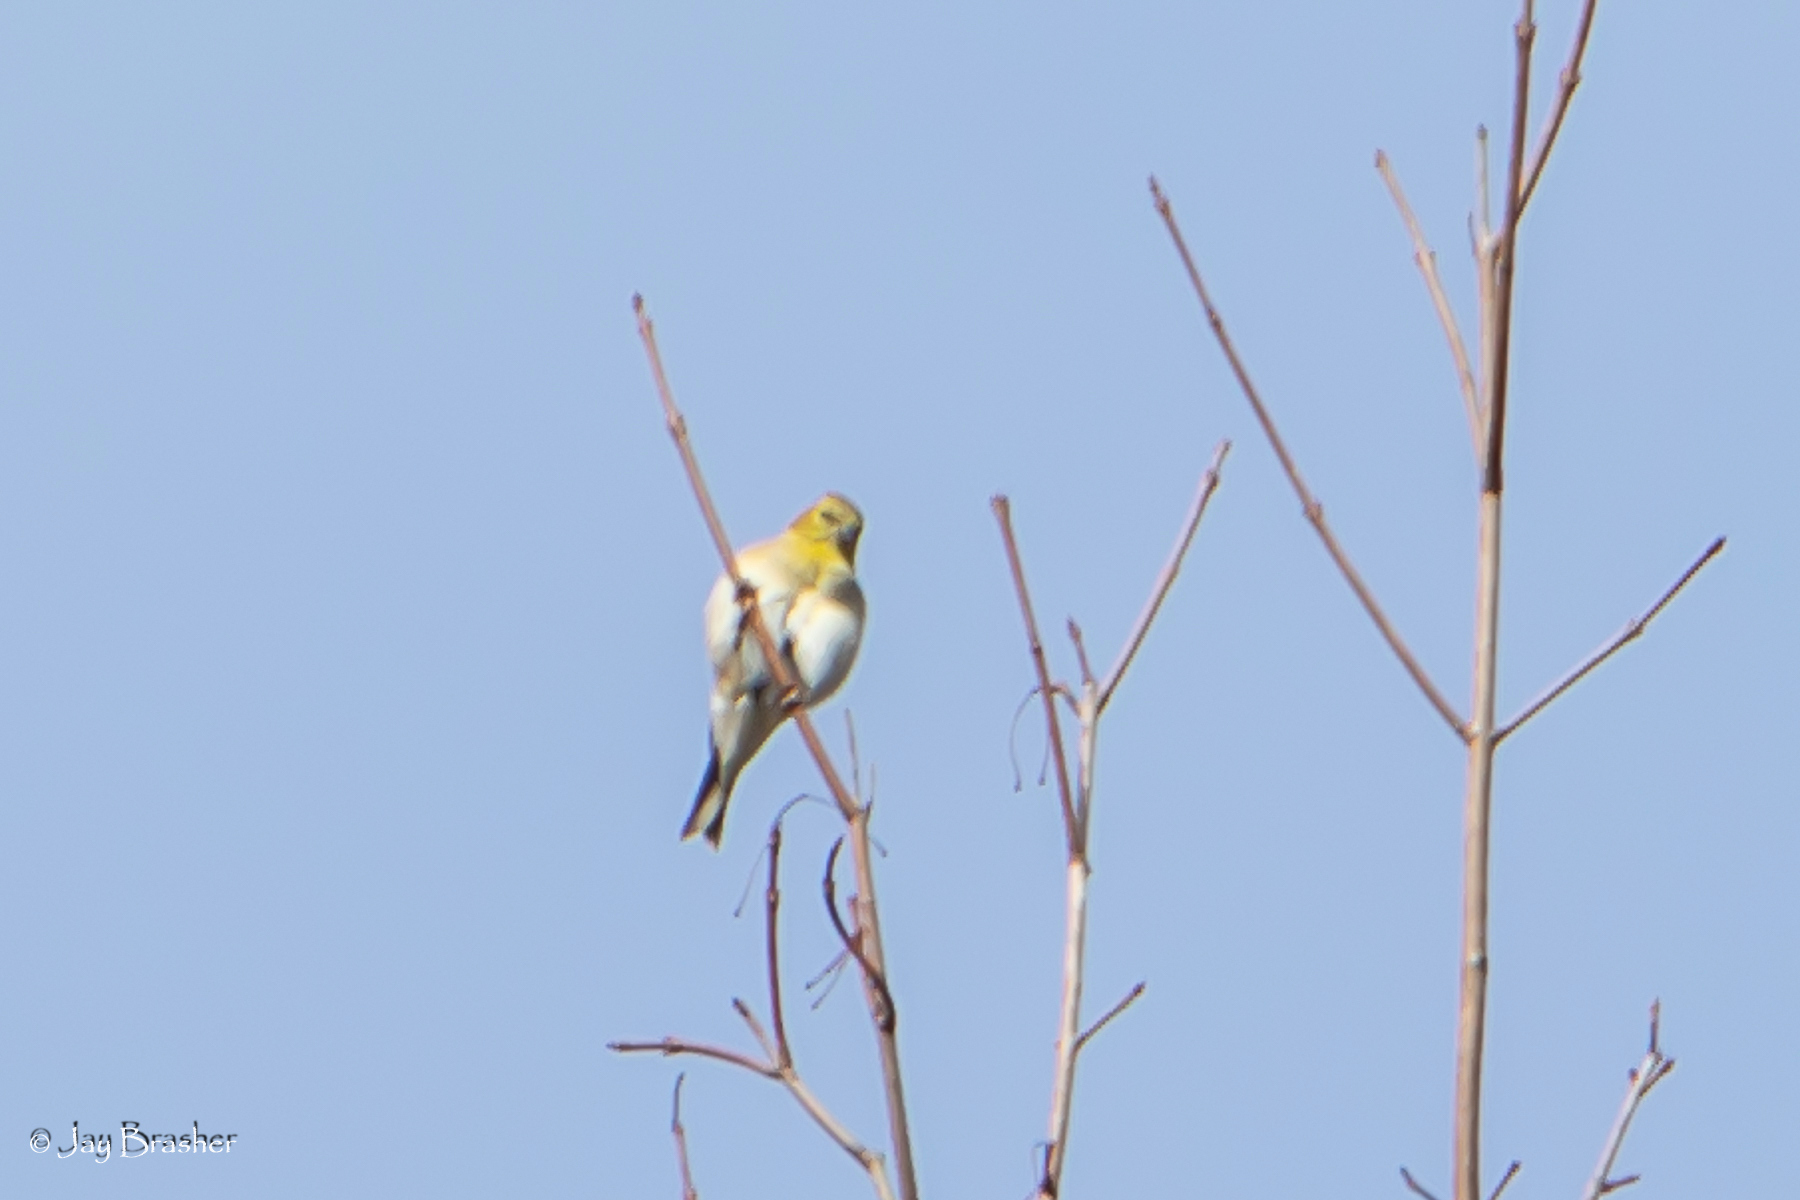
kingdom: Animalia
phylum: Chordata
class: Aves
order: Passeriformes
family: Fringillidae
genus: Spinus
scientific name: Spinus tristis
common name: American goldfinch
